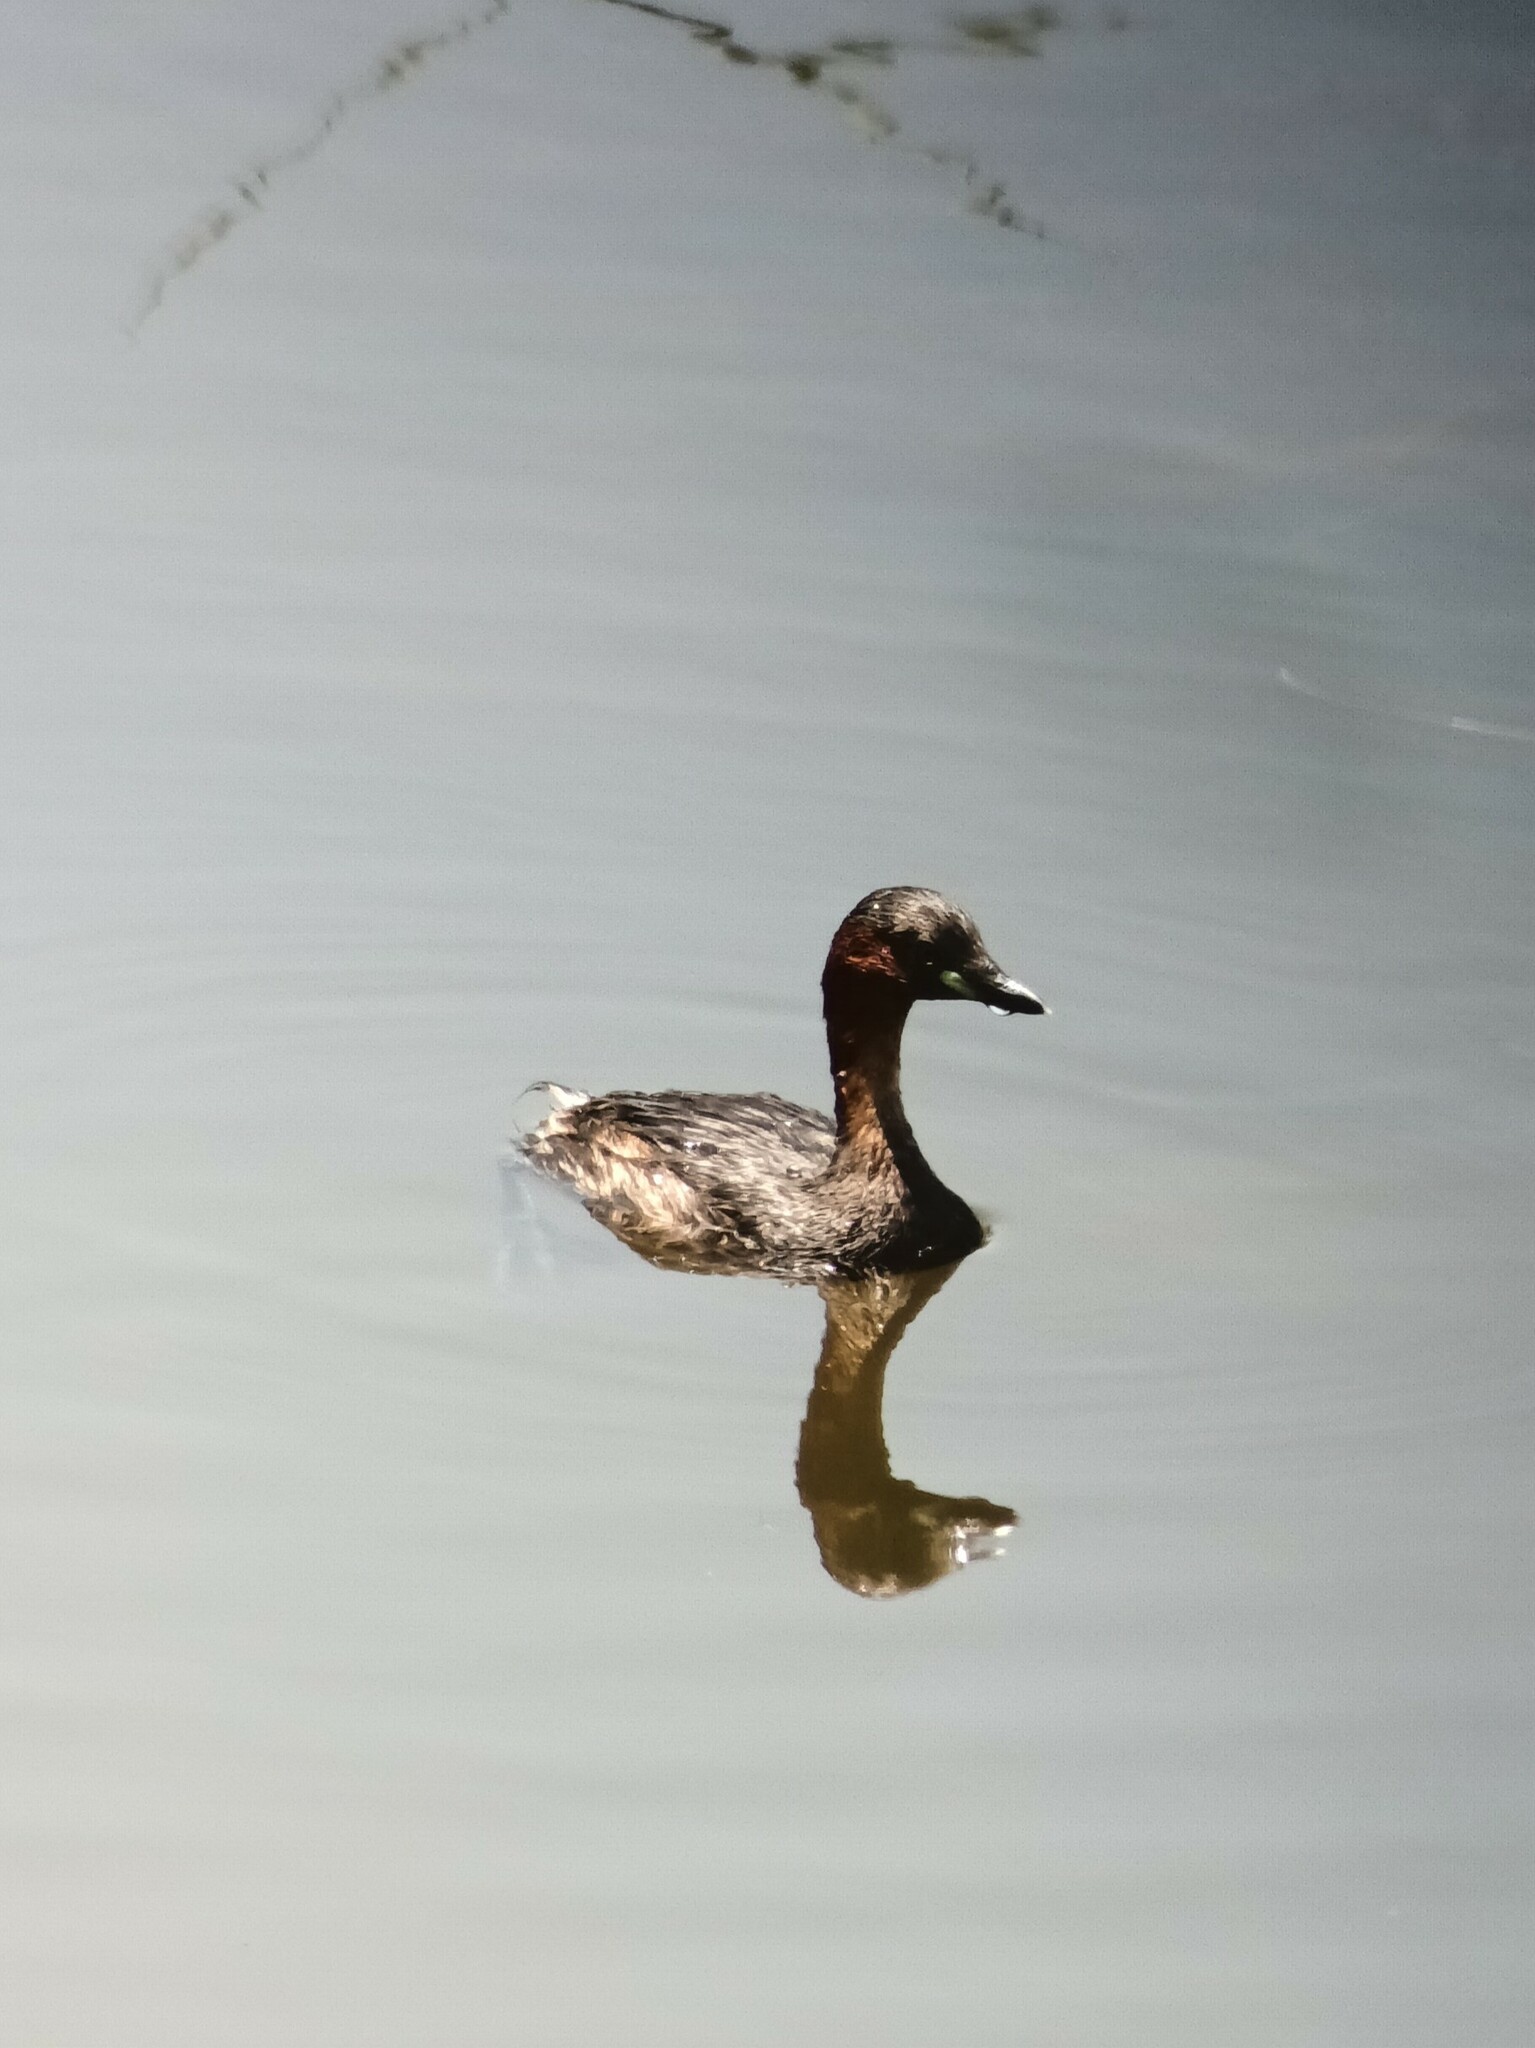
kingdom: Animalia
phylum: Chordata
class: Aves
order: Podicipediformes
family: Podicipedidae
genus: Tachybaptus
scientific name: Tachybaptus ruficollis
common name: Little grebe
